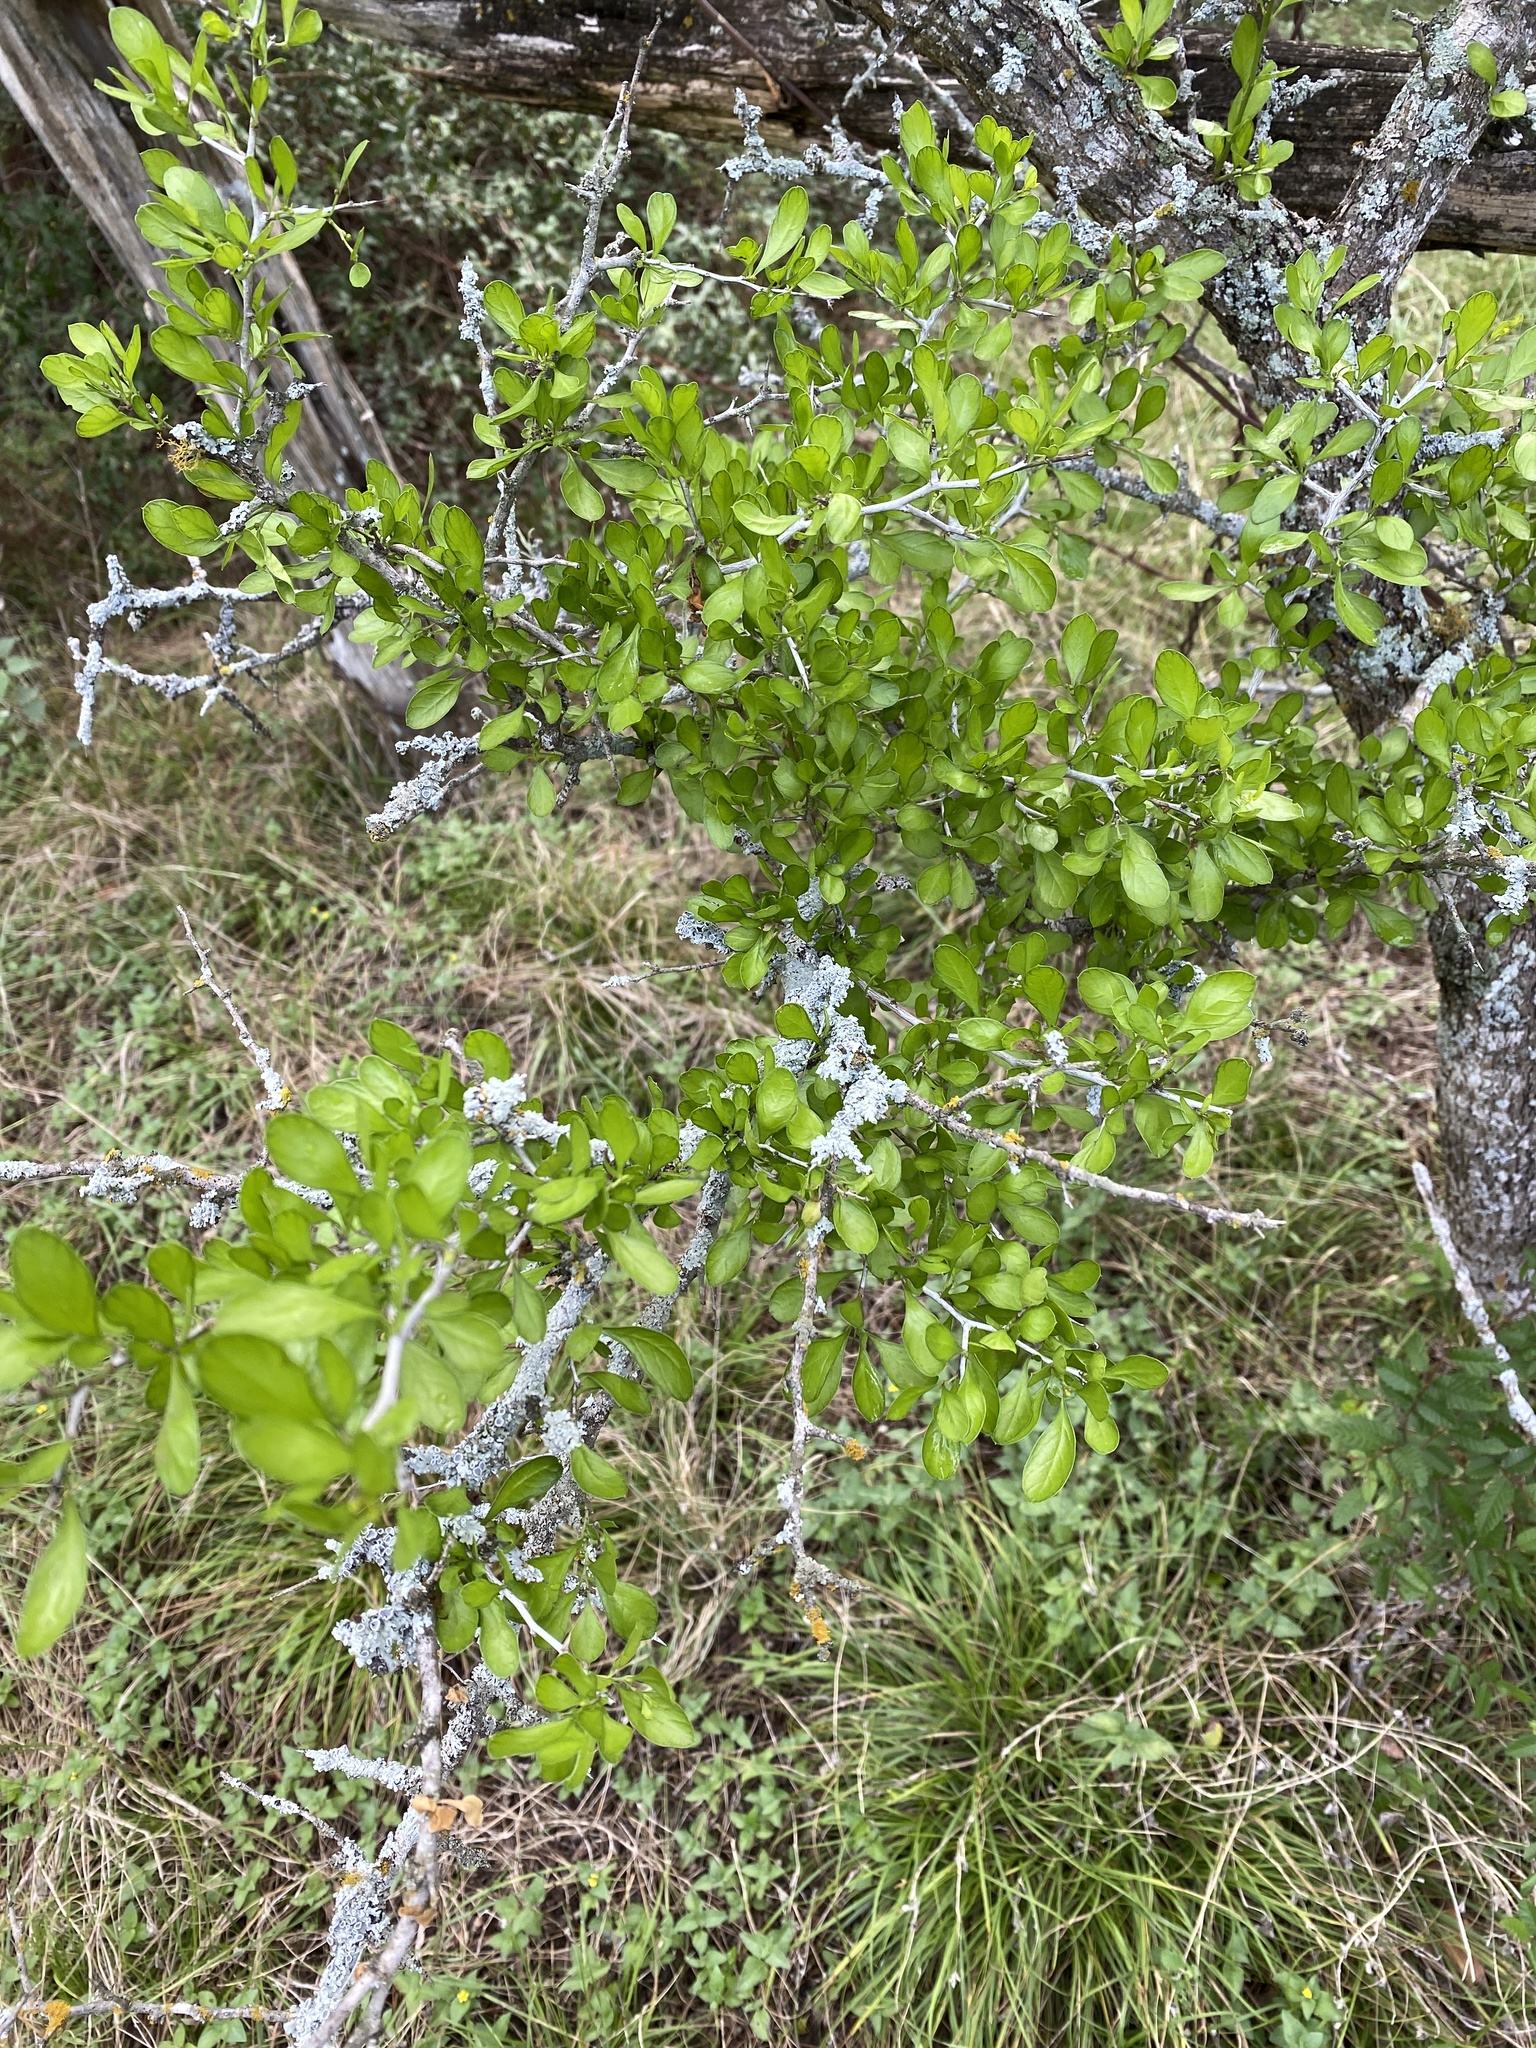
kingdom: Plantae
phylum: Tracheophyta
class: Magnoliopsida
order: Rosales
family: Rhamnaceae
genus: Condalia
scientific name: Condalia hookeri
